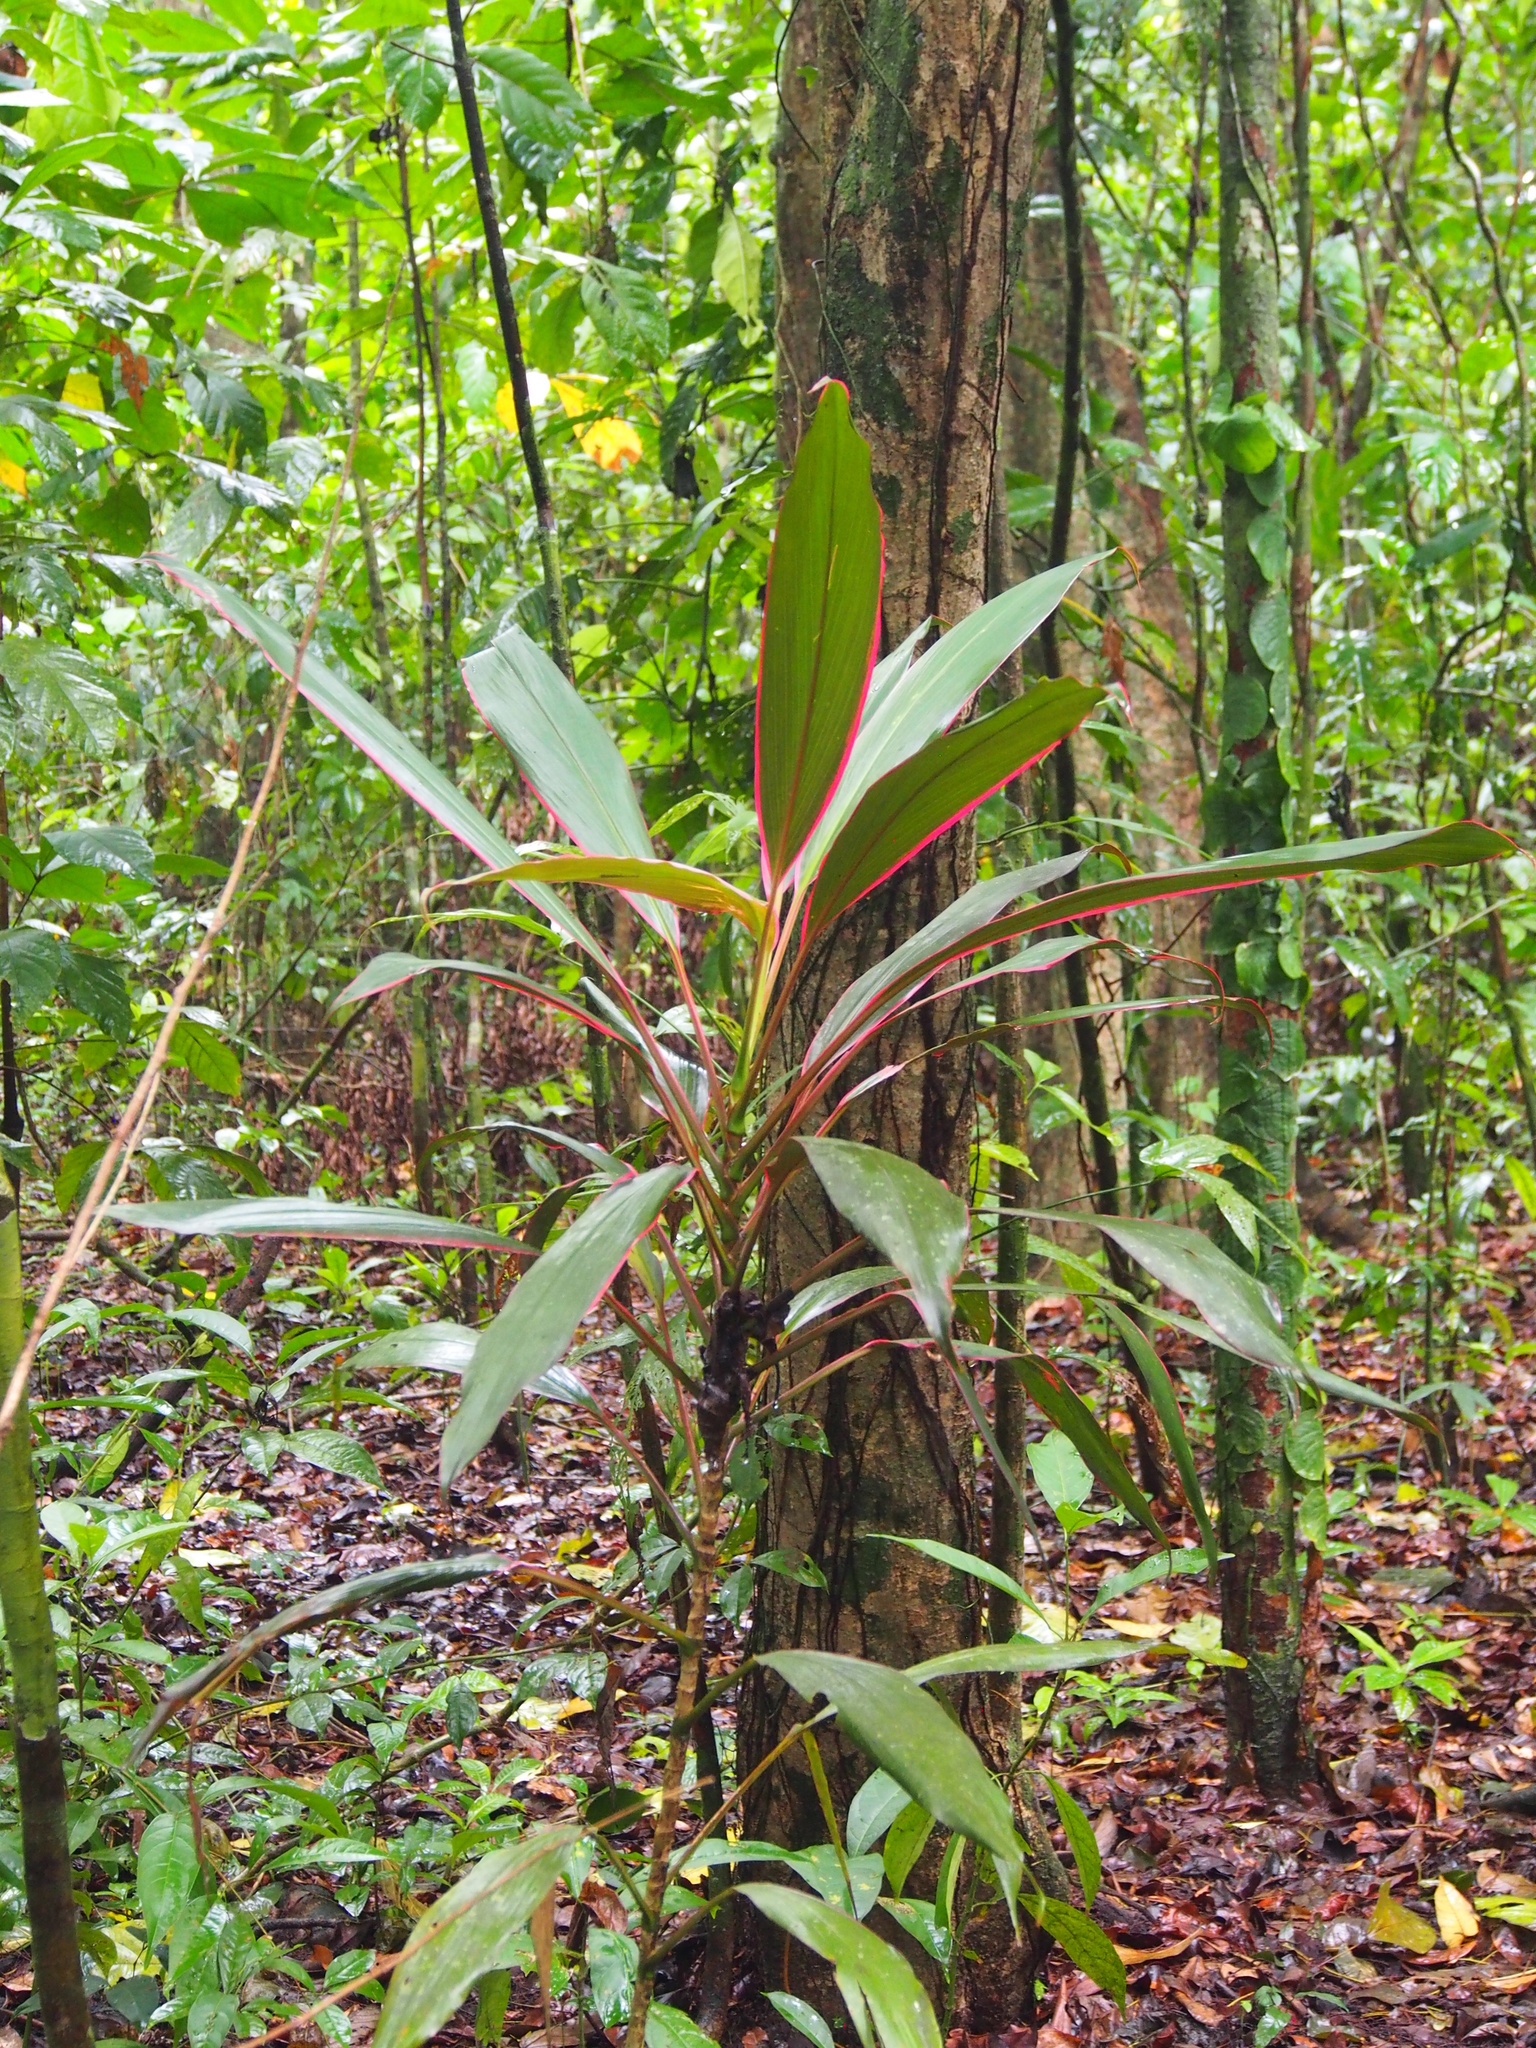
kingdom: Plantae
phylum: Tracheophyta
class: Liliopsida
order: Asparagales
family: Asparagaceae
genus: Cordyline
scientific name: Cordyline fruticosa
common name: Good-luck-plant
